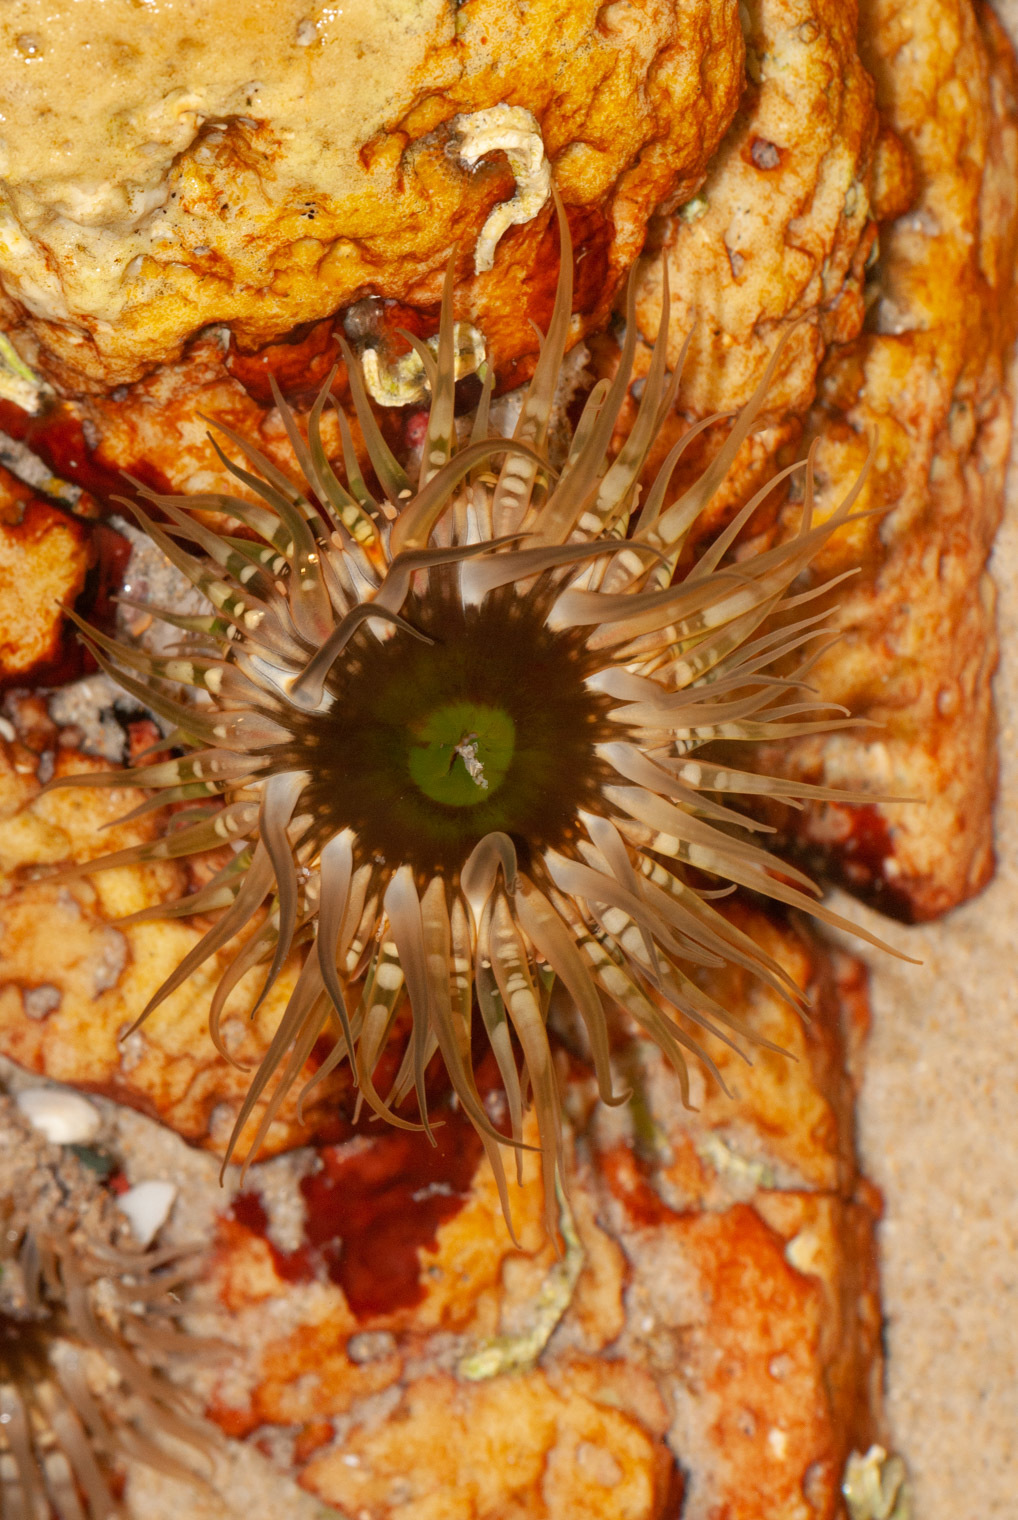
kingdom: Animalia
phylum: Cnidaria
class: Anthozoa
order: Actiniaria
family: Actiniidae
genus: Oulactis
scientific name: Oulactis muscosa
